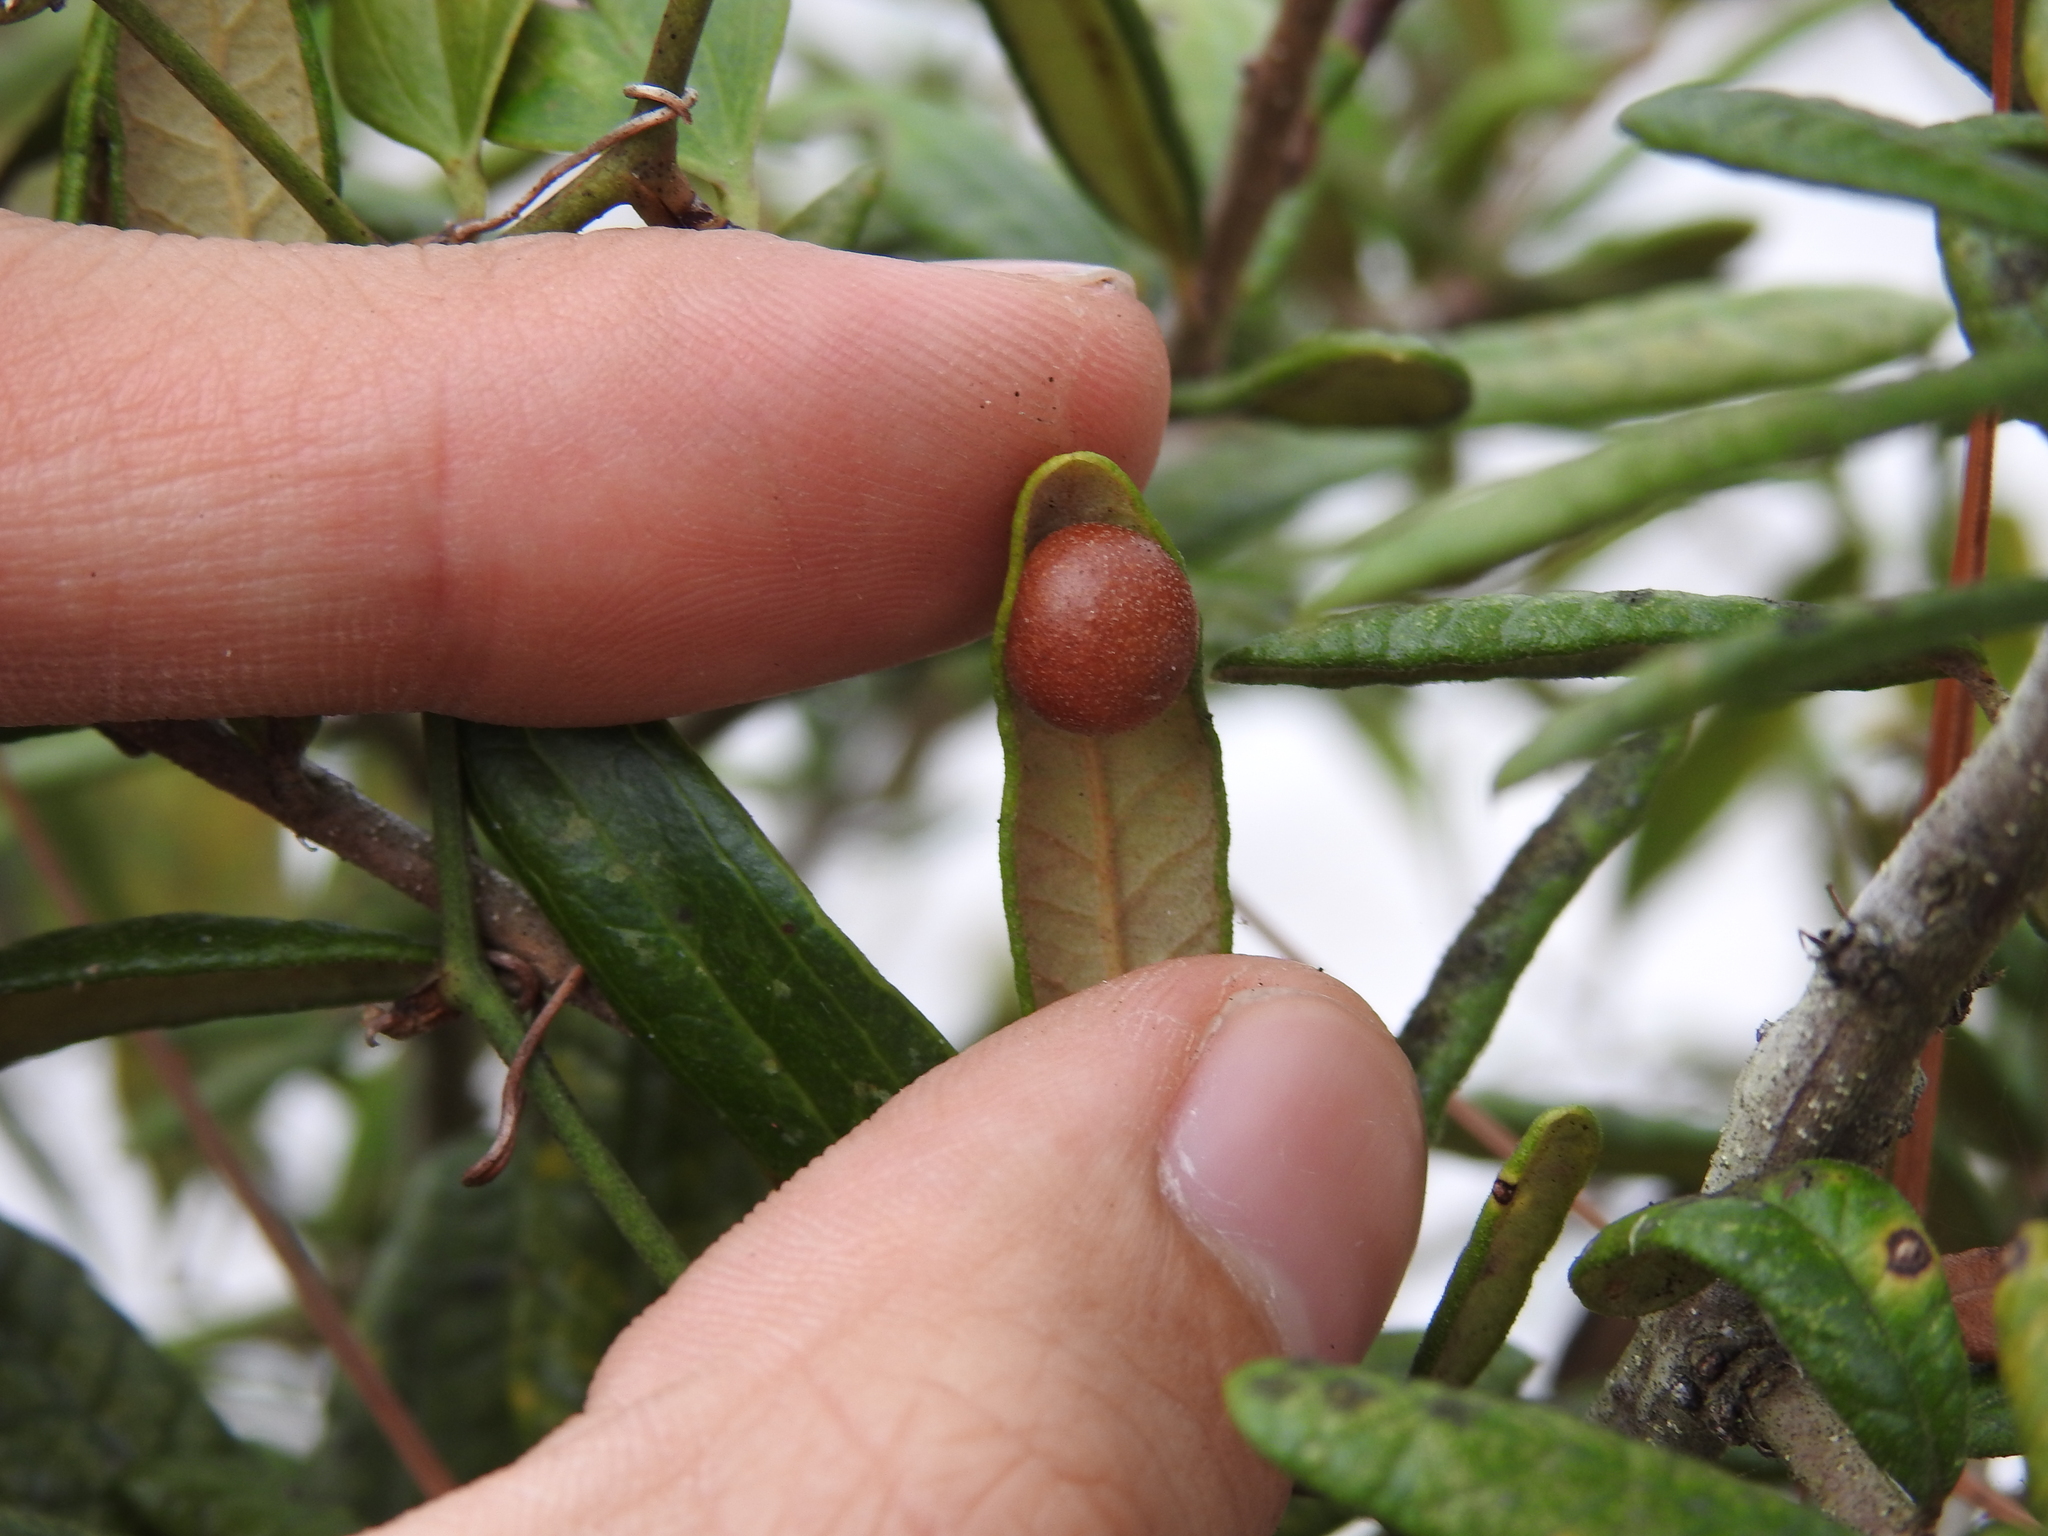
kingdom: Animalia
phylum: Arthropoda
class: Insecta
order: Hymenoptera
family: Cynipidae
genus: Belonocnema
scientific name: Belonocnema fossoria
